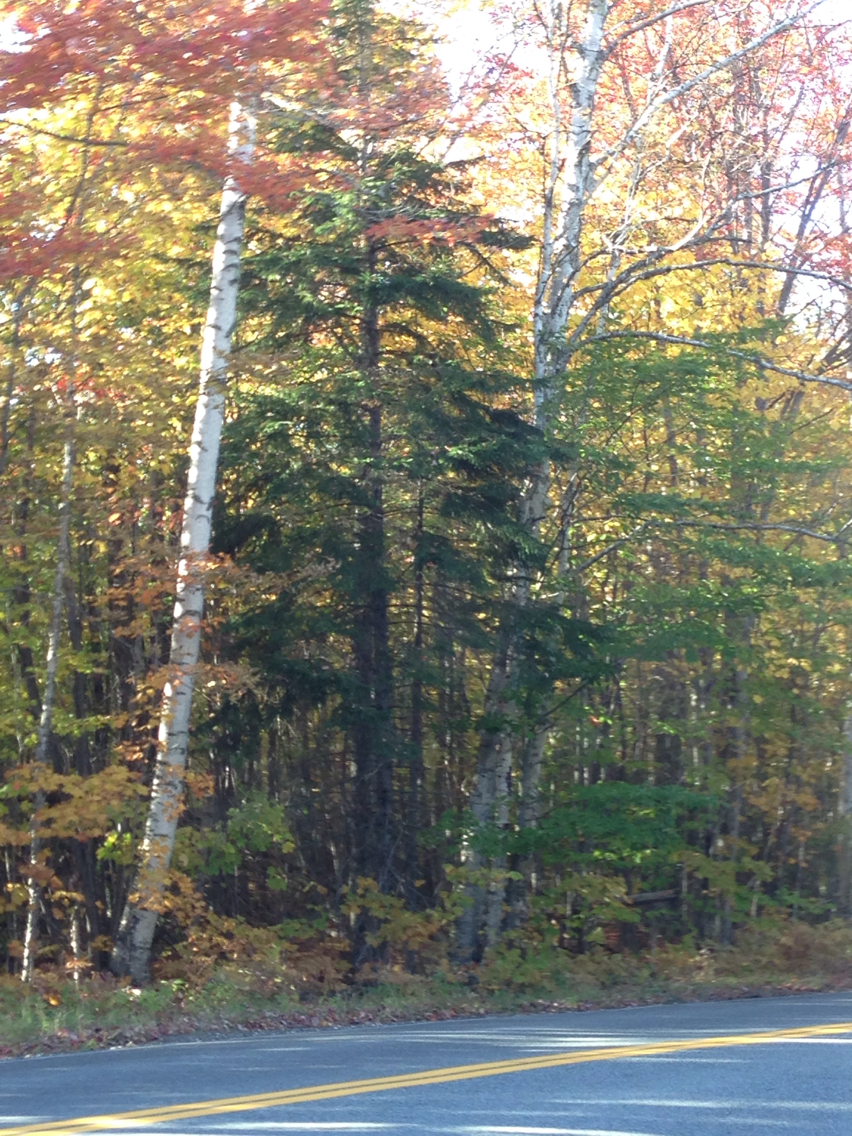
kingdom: Plantae
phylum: Tracheophyta
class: Pinopsida
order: Pinales
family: Pinaceae
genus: Picea
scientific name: Picea rubens
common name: Red spruce
